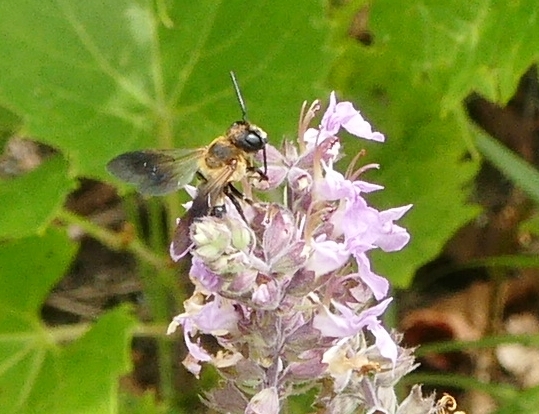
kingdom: Animalia
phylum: Arthropoda
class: Insecta
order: Hymenoptera
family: Megachilidae
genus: Megachile
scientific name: Megachile sculpturalis
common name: Sculptured resin bee
